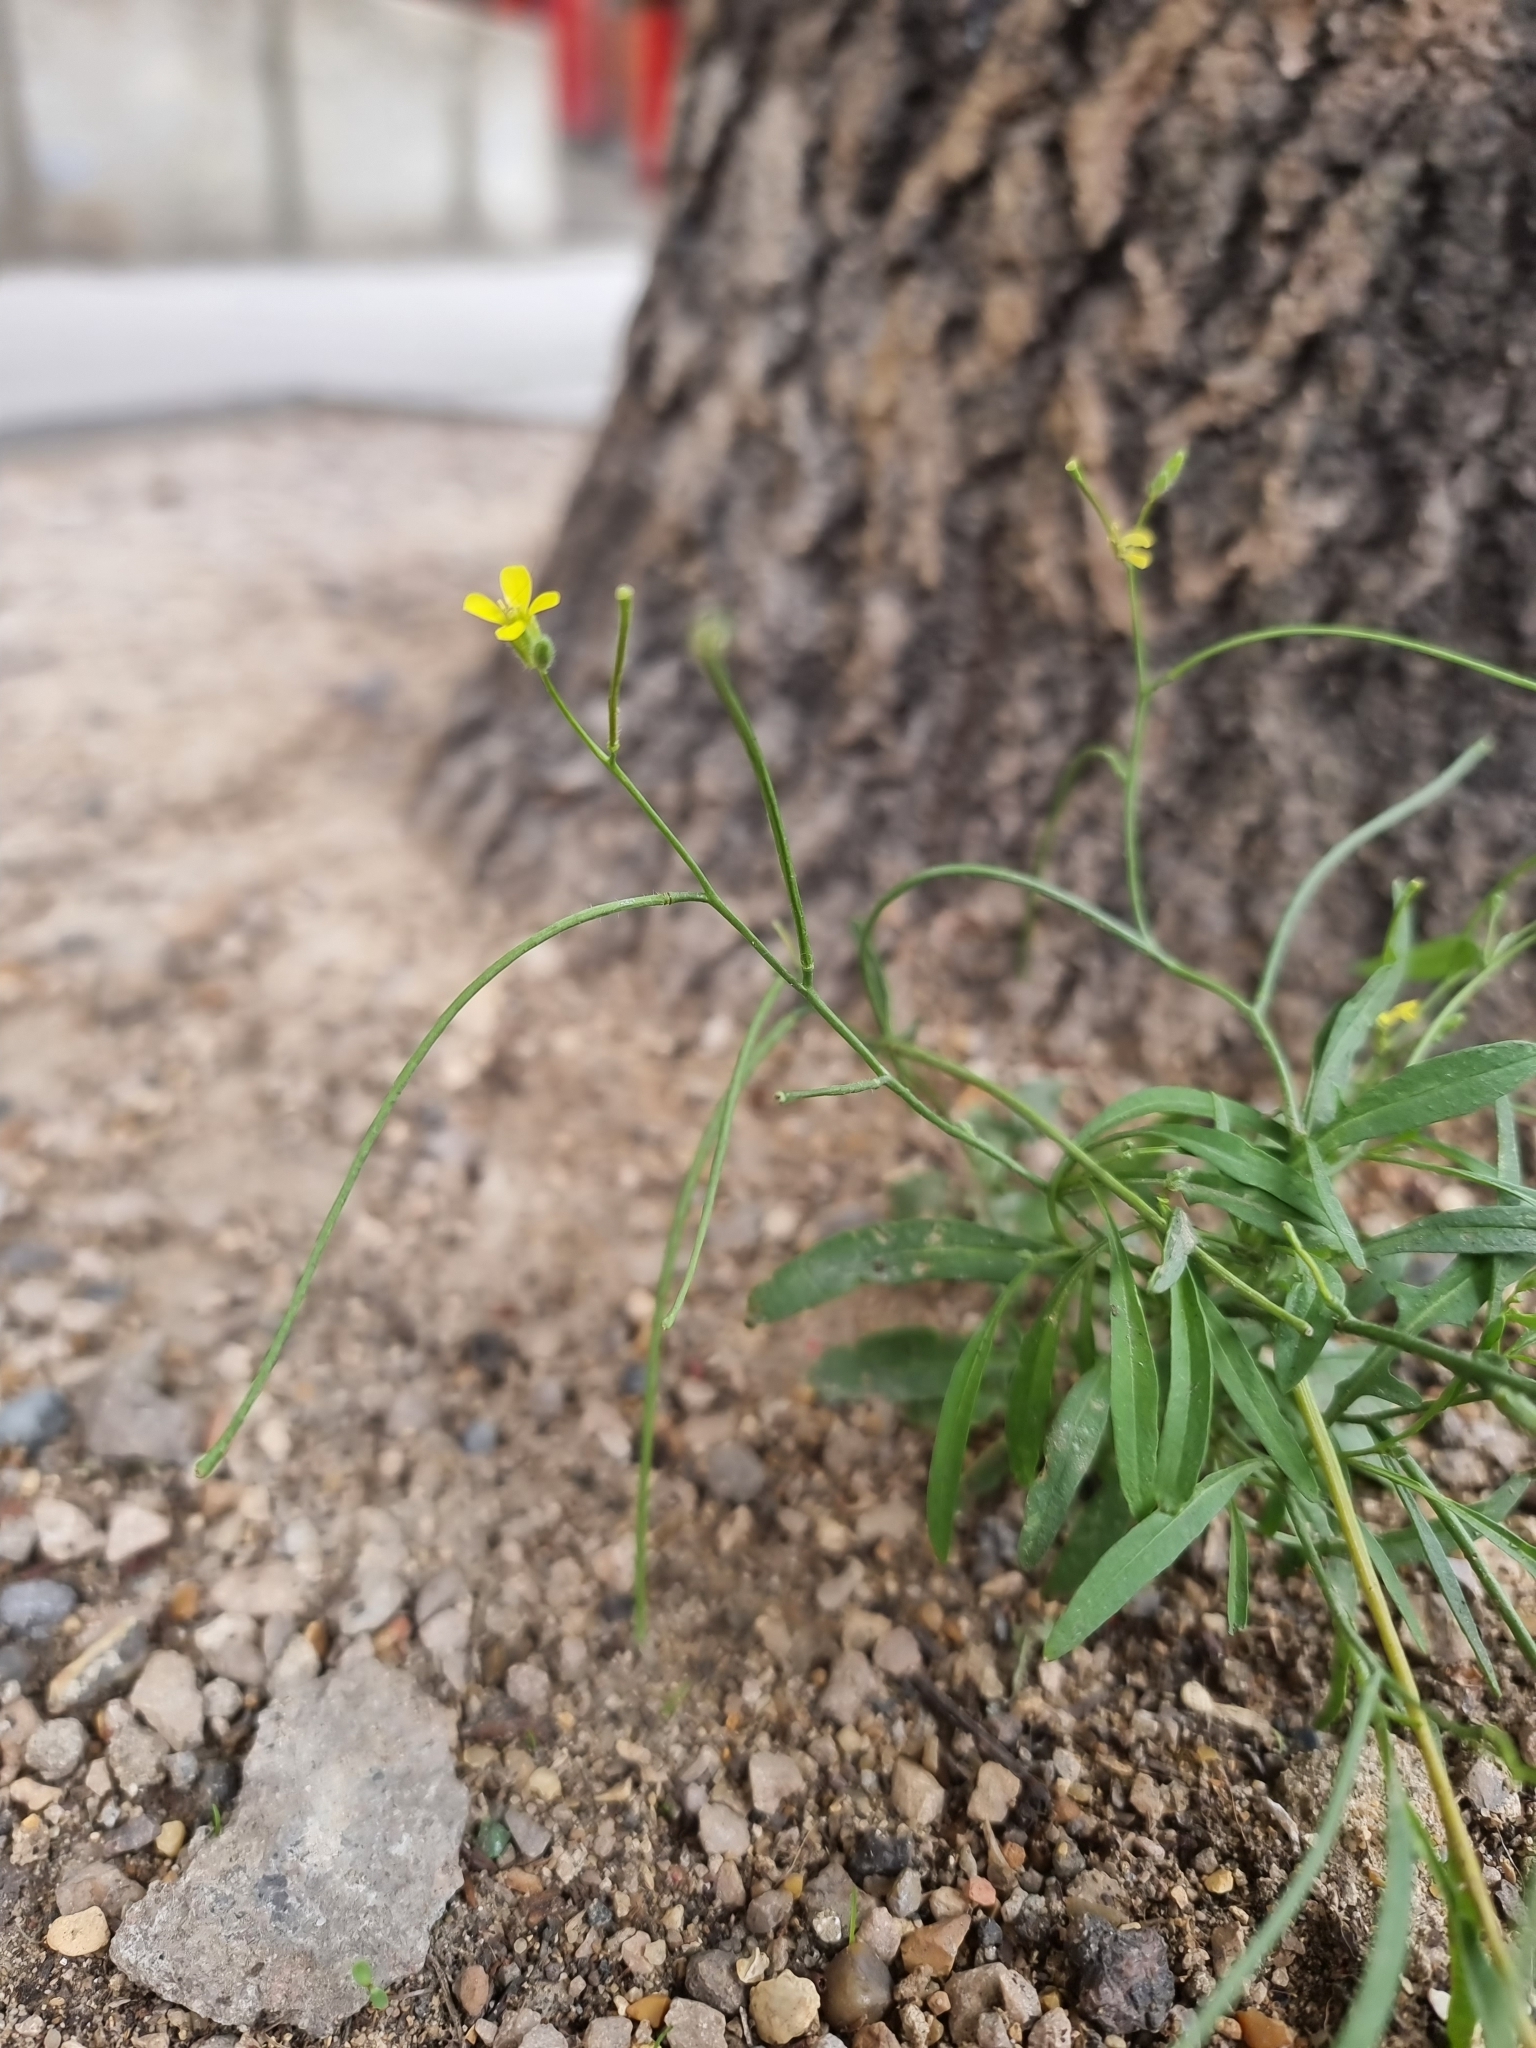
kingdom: Plantae
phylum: Tracheophyta
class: Magnoliopsida
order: Brassicales
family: Brassicaceae
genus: Sisymbrium
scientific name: Sisymbrium orientale
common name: Eastern rocket
